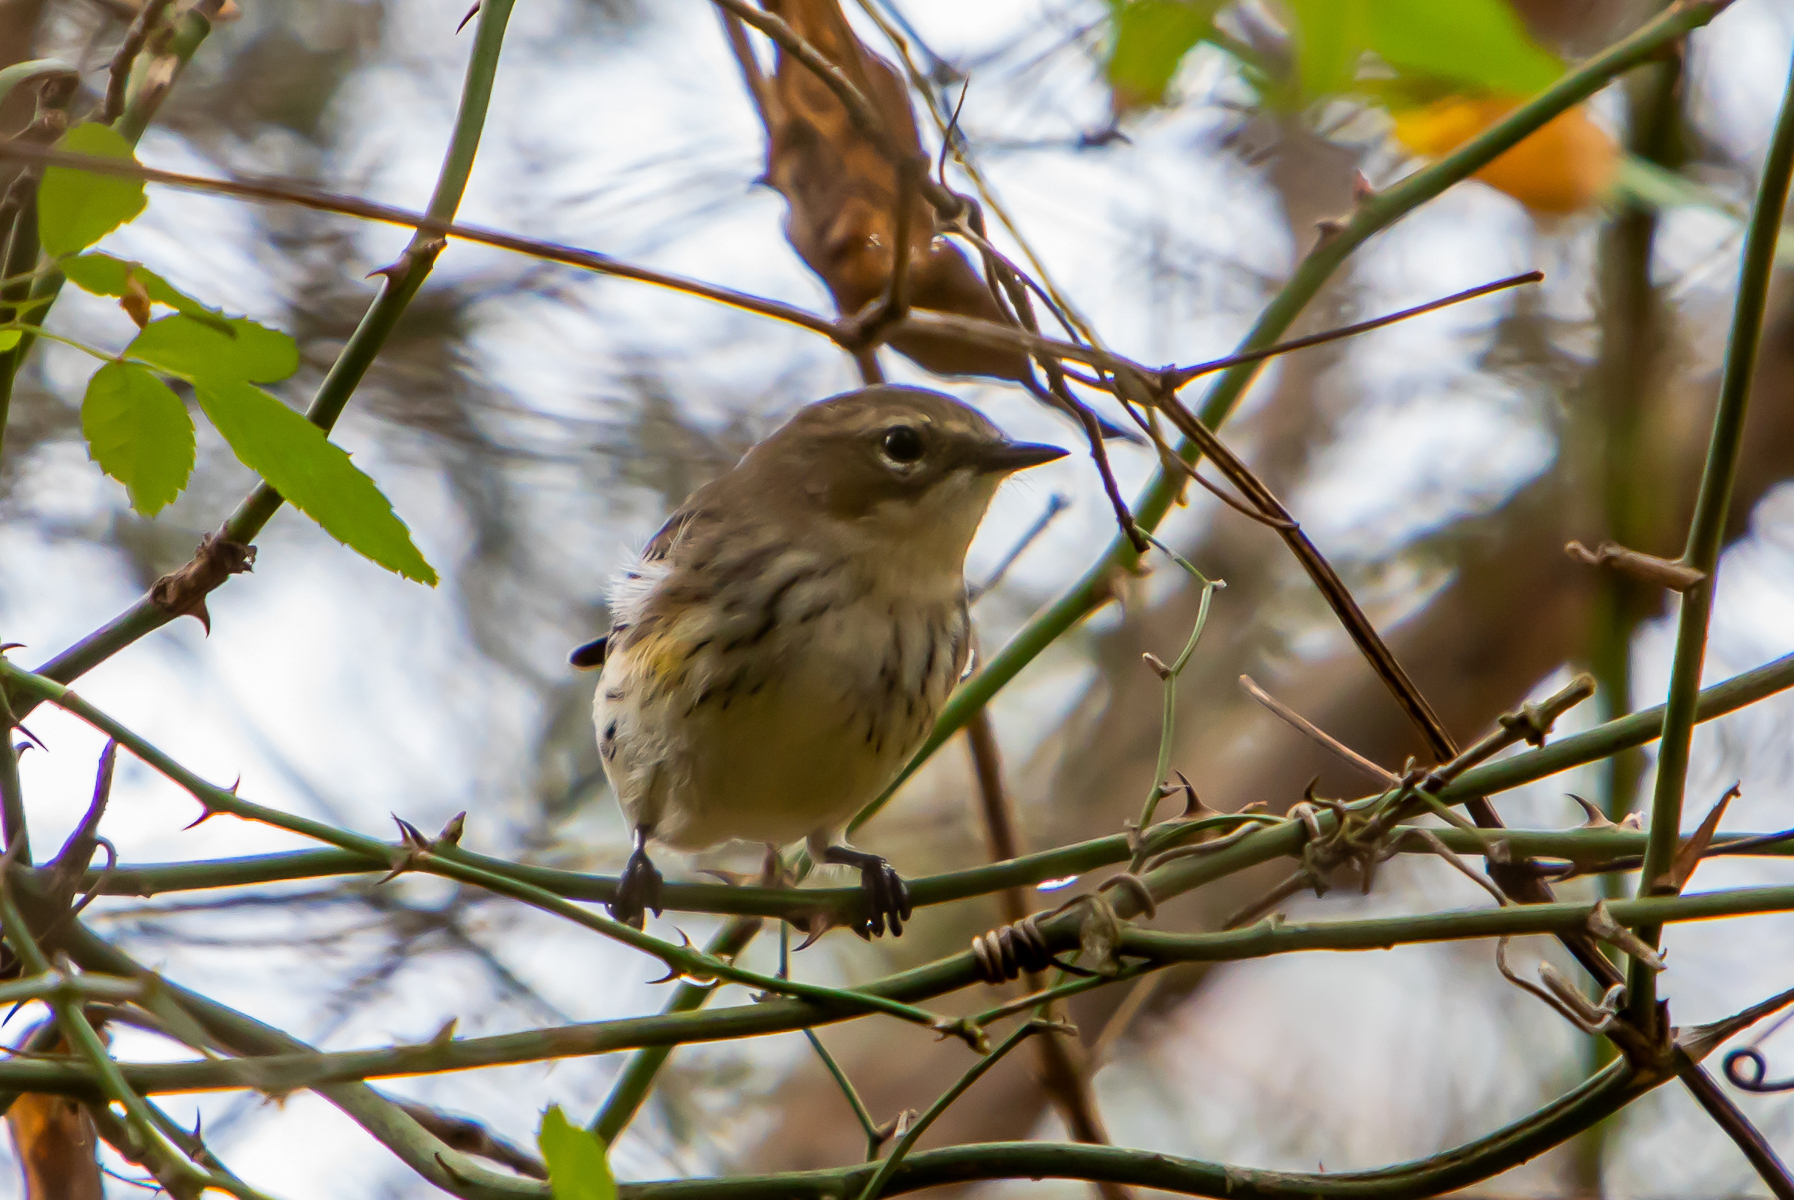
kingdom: Animalia
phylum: Chordata
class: Aves
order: Passeriformes
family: Parulidae
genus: Setophaga
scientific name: Setophaga coronata
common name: Myrtle warbler
